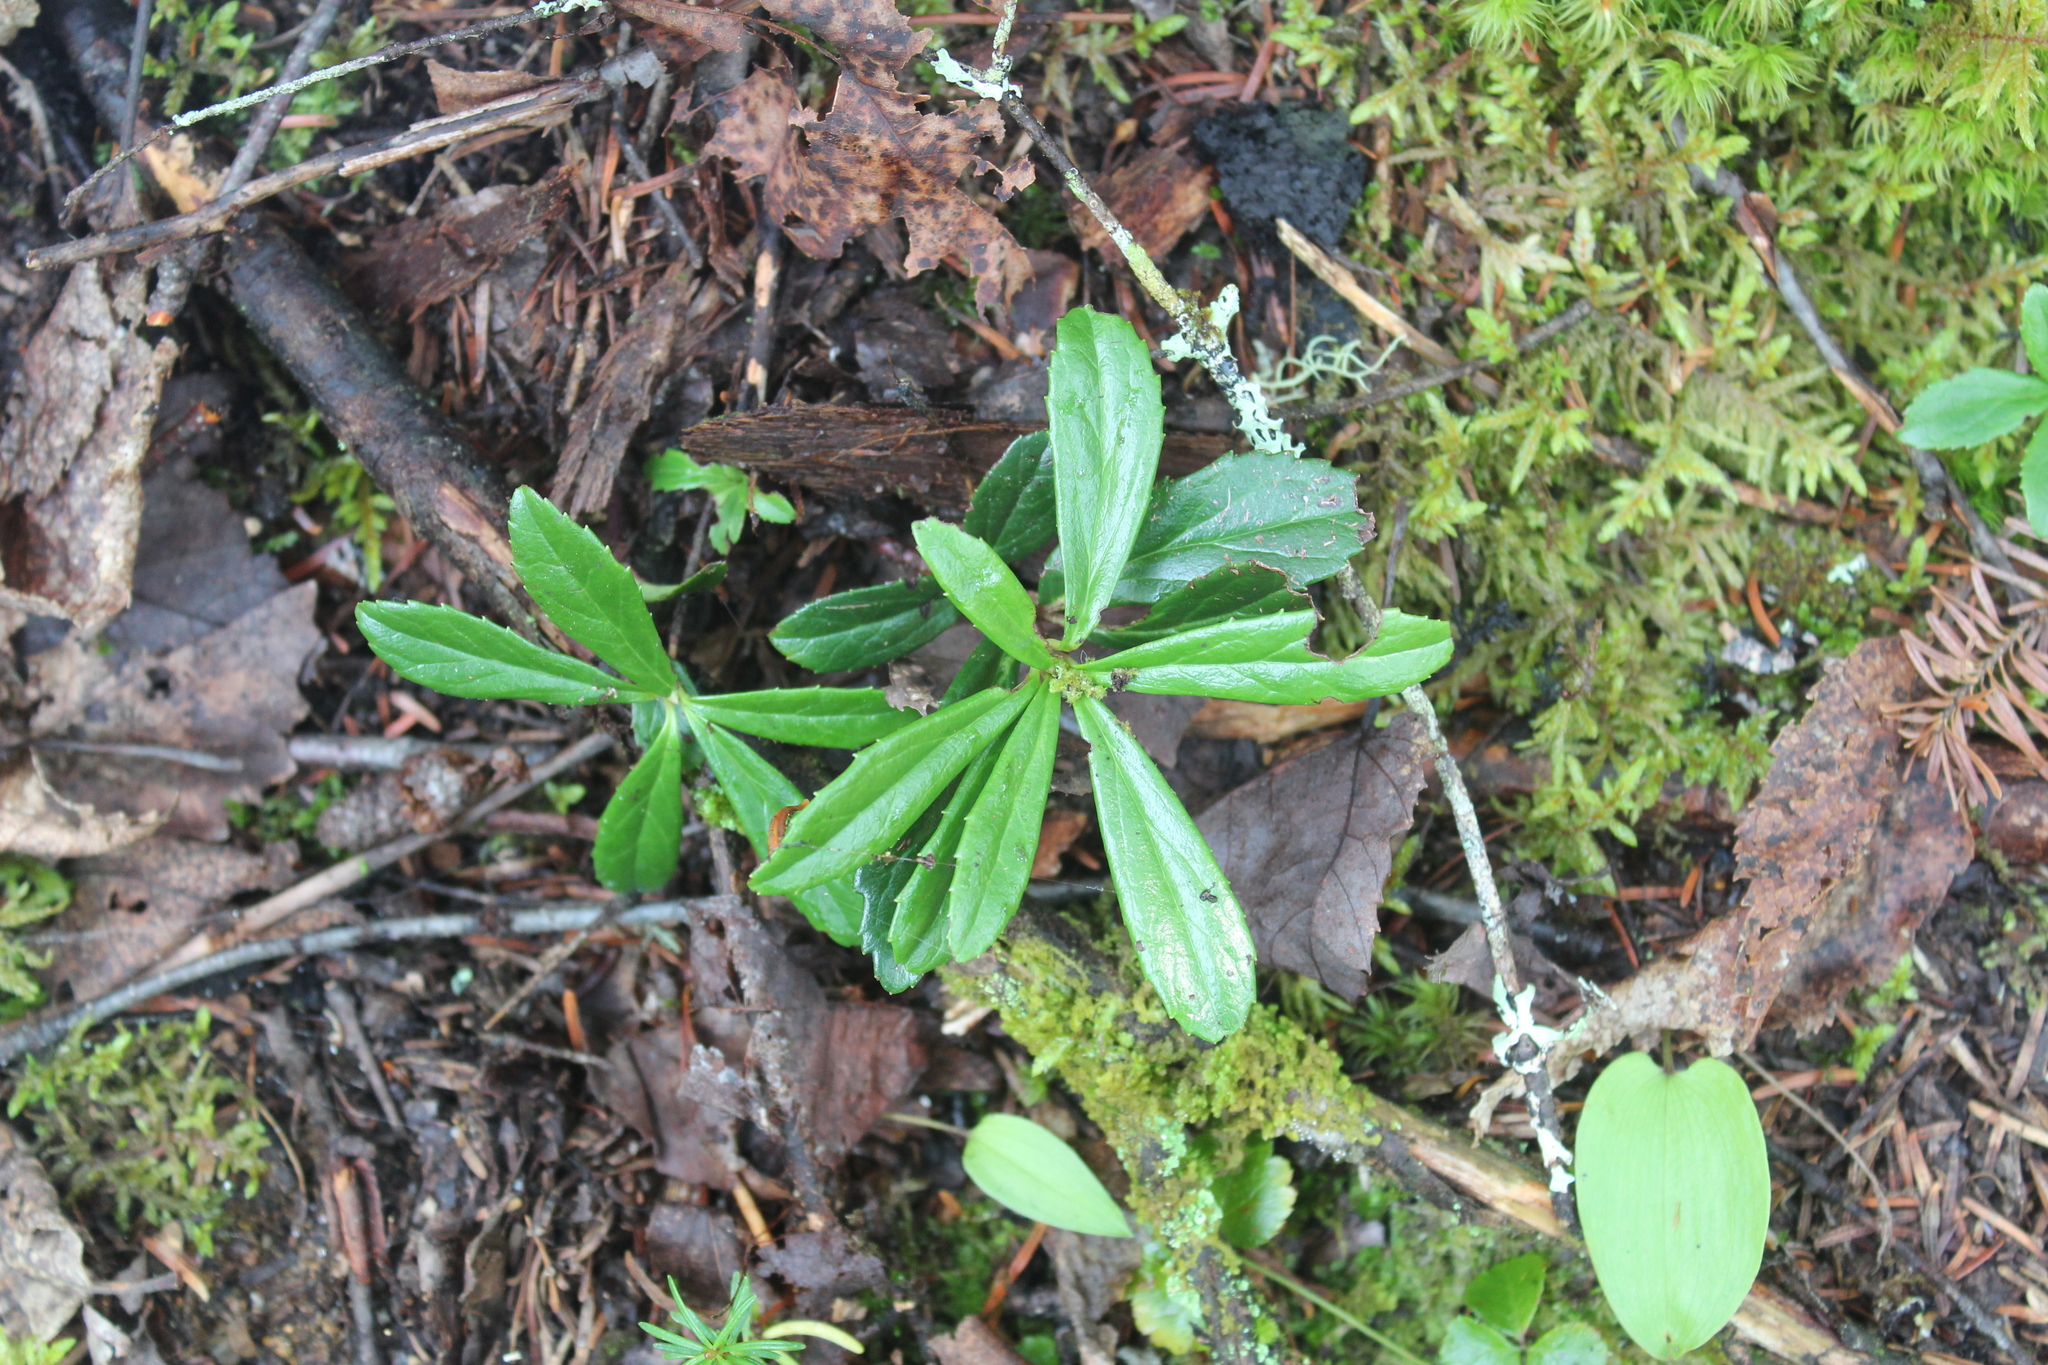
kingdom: Plantae
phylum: Tracheophyta
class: Magnoliopsida
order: Ericales
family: Ericaceae
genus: Chimaphila
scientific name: Chimaphila umbellata
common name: Pipsissewa
